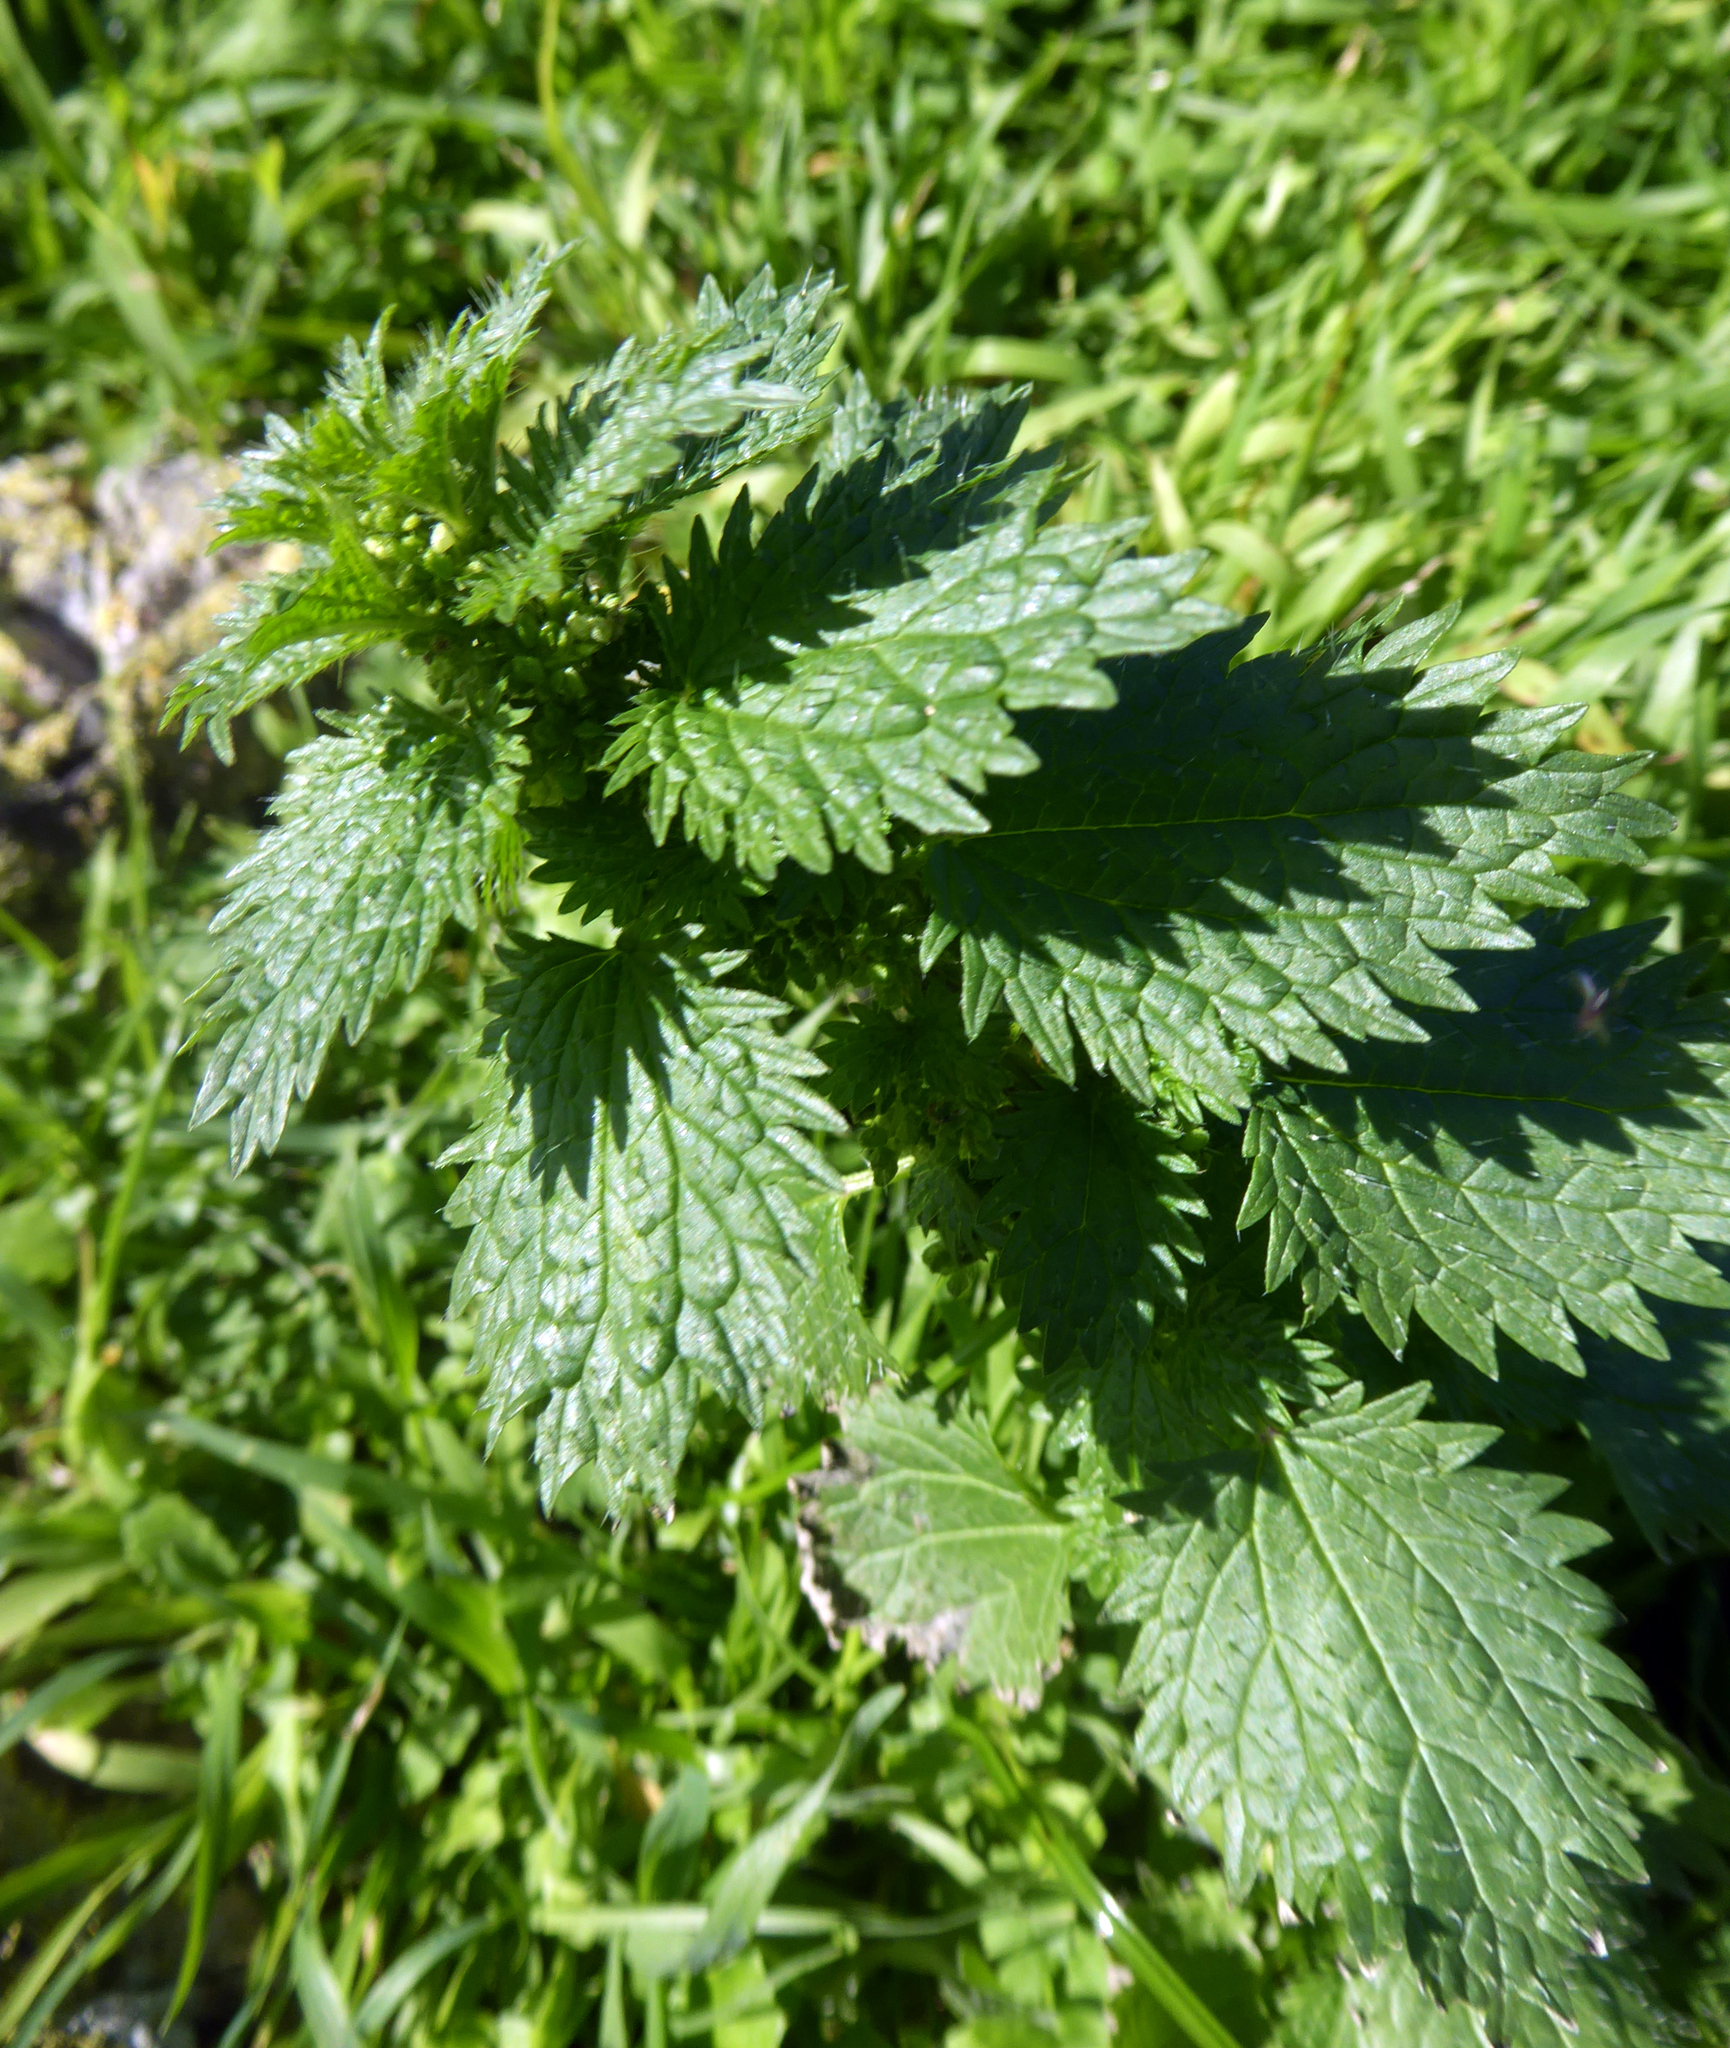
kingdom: Plantae
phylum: Tracheophyta
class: Magnoliopsida
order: Rosales
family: Urticaceae
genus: Urtica
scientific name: Urtica urens
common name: Dwarf nettle
